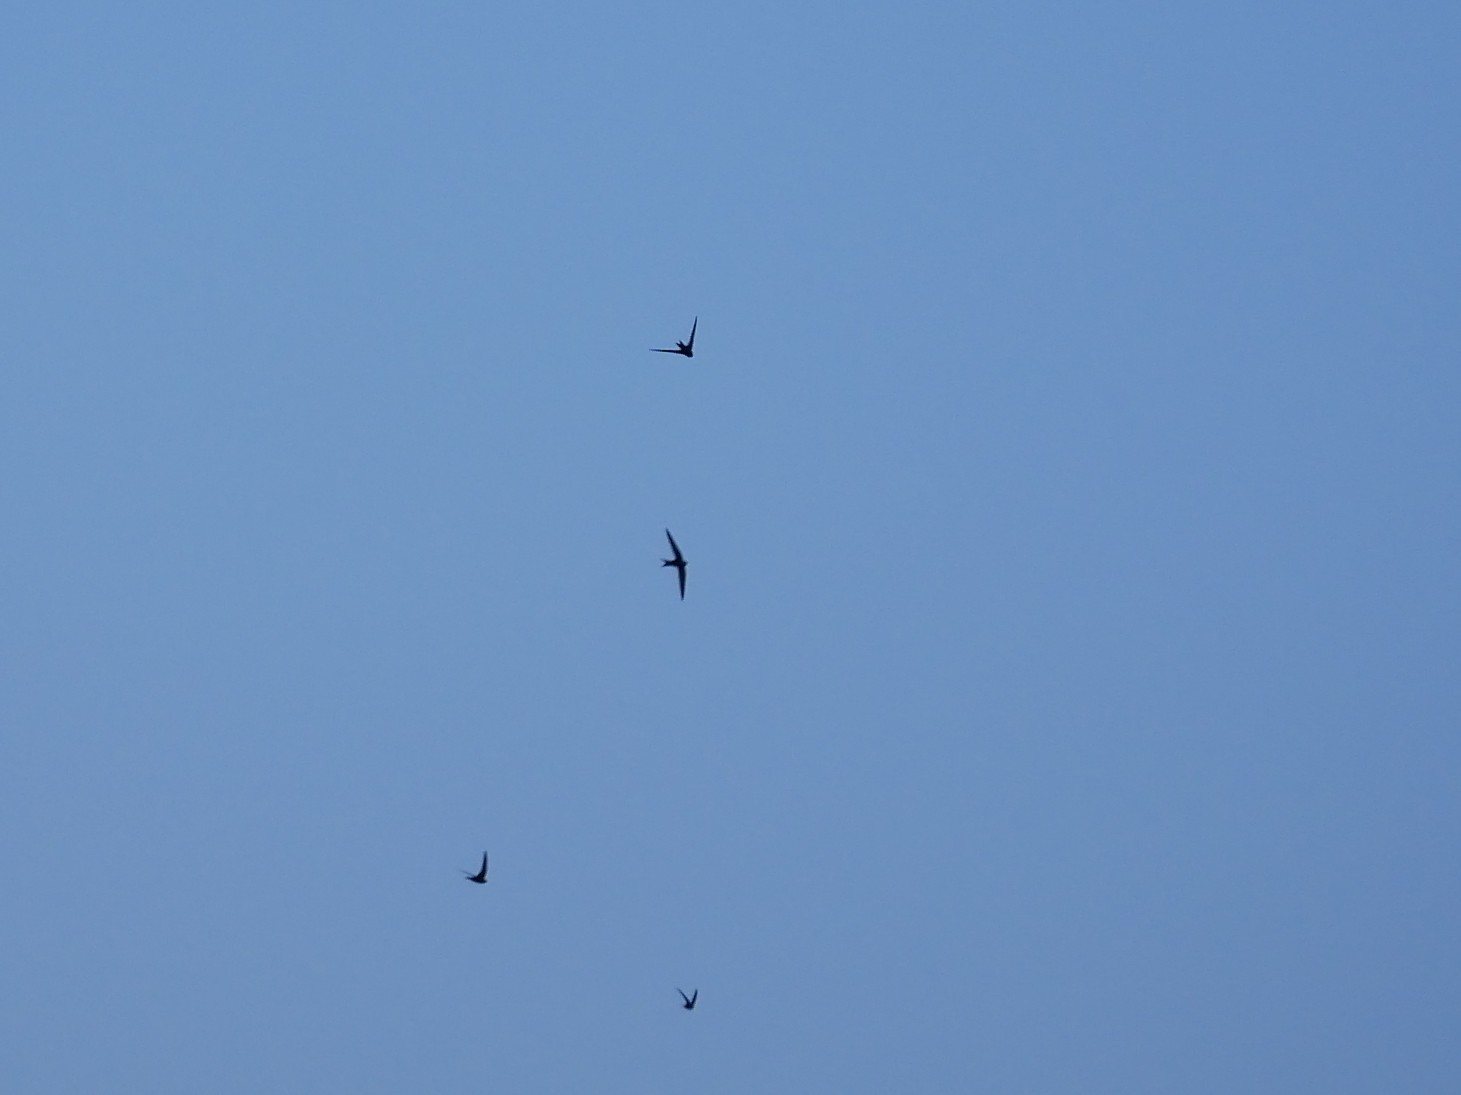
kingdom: Animalia
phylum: Chordata
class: Aves
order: Apodiformes
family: Apodidae
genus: Apus
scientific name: Apus apus
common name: Common swift
